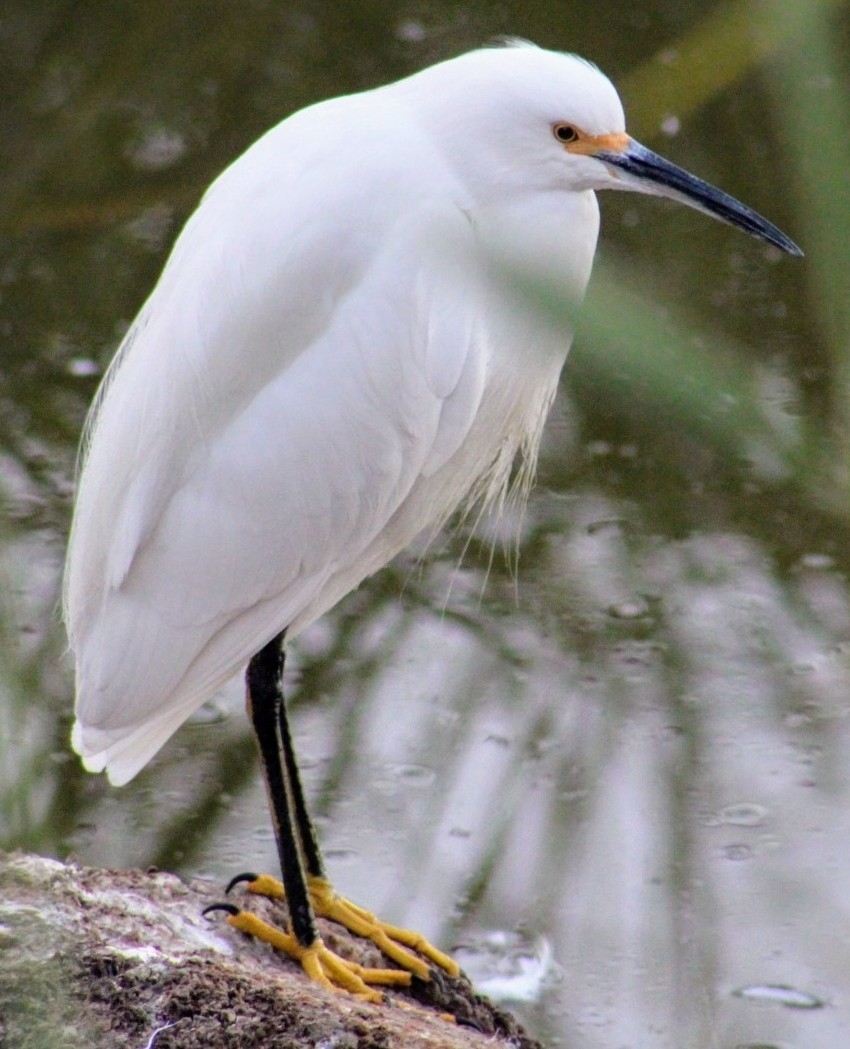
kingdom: Animalia
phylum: Chordata
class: Aves
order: Pelecaniformes
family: Ardeidae
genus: Egretta
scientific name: Egretta thula
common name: Snowy egret
